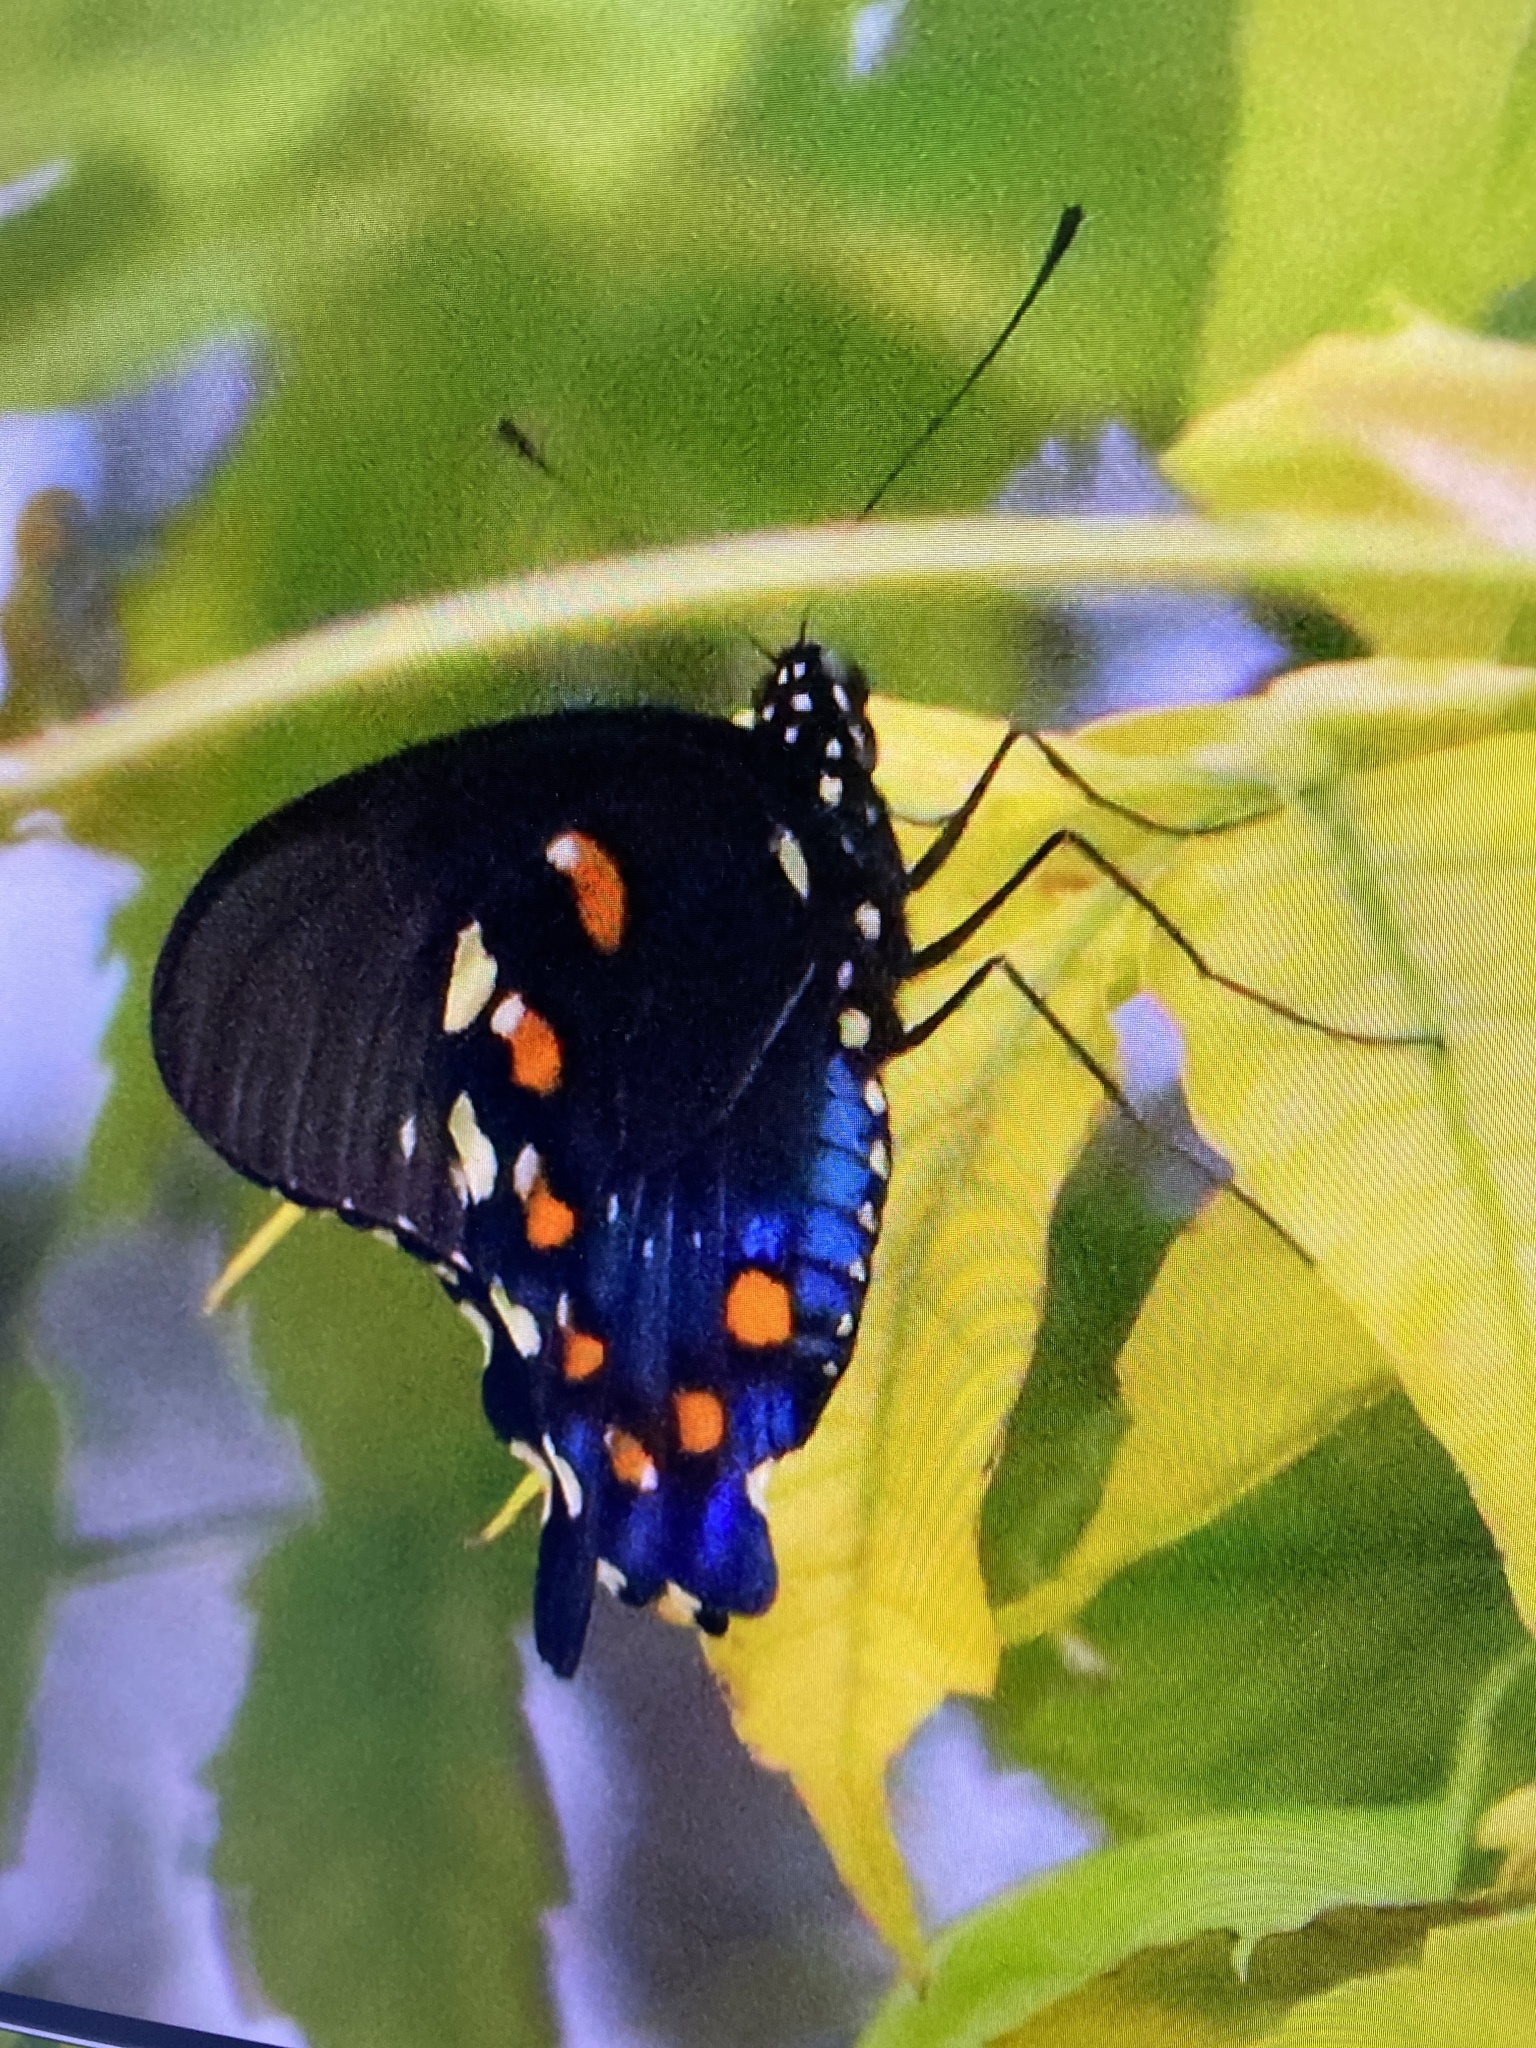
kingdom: Animalia
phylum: Arthropoda
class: Insecta
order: Lepidoptera
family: Papilionidae
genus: Battus
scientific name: Battus philenor
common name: Pipevine swallowtail
